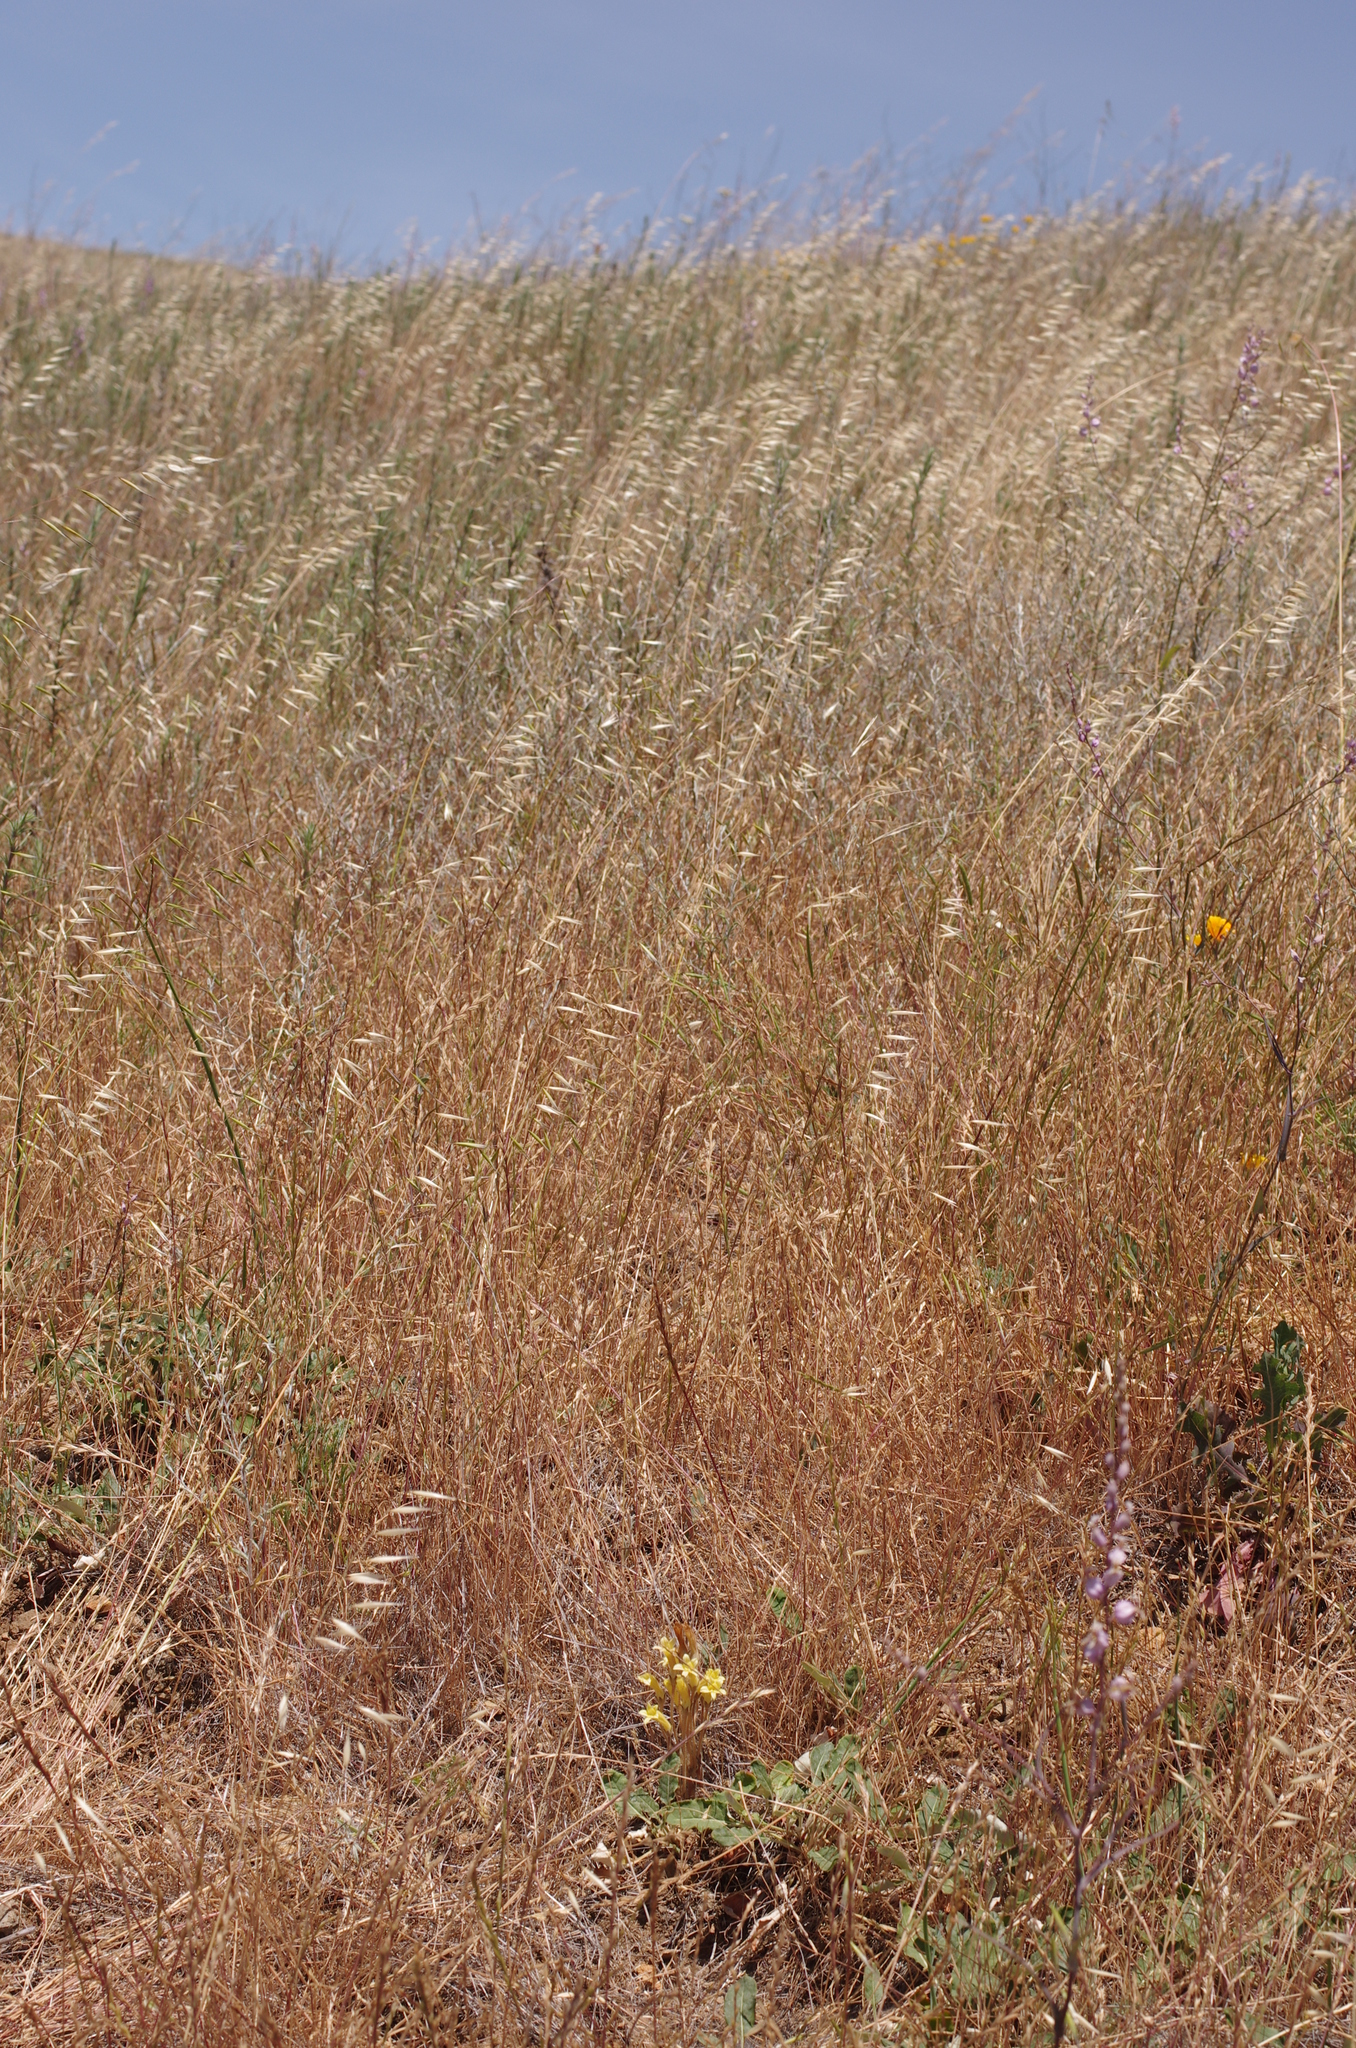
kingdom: Plantae
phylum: Tracheophyta
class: Magnoliopsida
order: Lamiales
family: Orobanchaceae
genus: Aphyllon
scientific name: Aphyllon franciscanum
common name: San francisco broomrape
